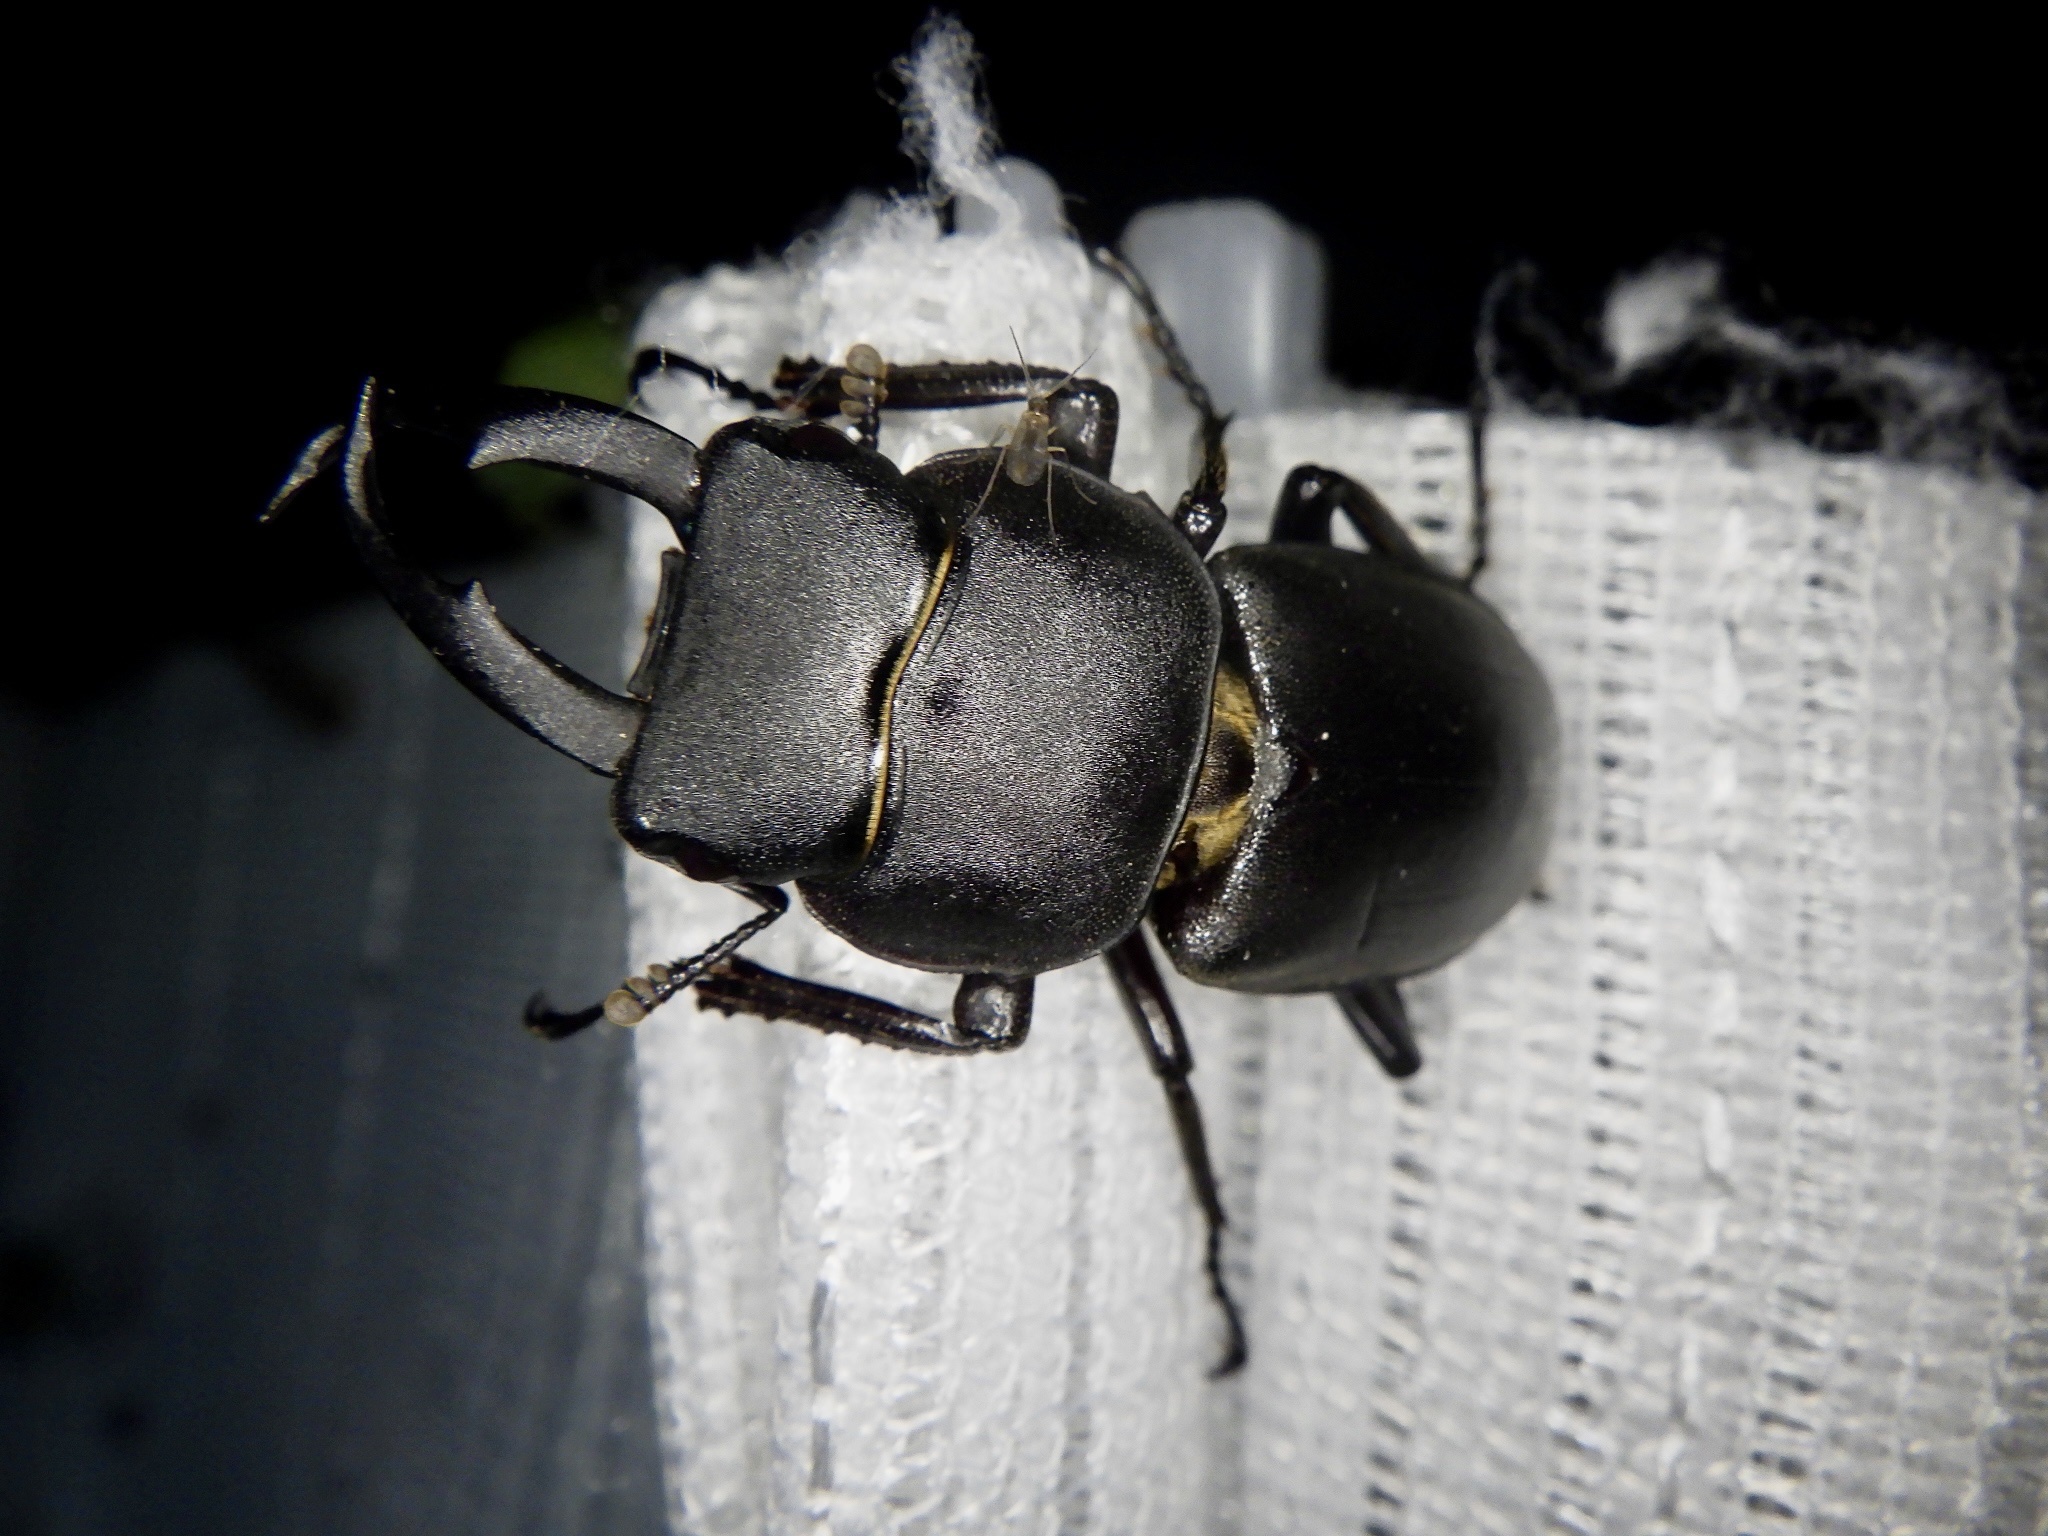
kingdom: Animalia
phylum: Arthropoda
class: Insecta
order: Coleoptera
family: Lucanidae
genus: Dorcus
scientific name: Dorcus rectus
